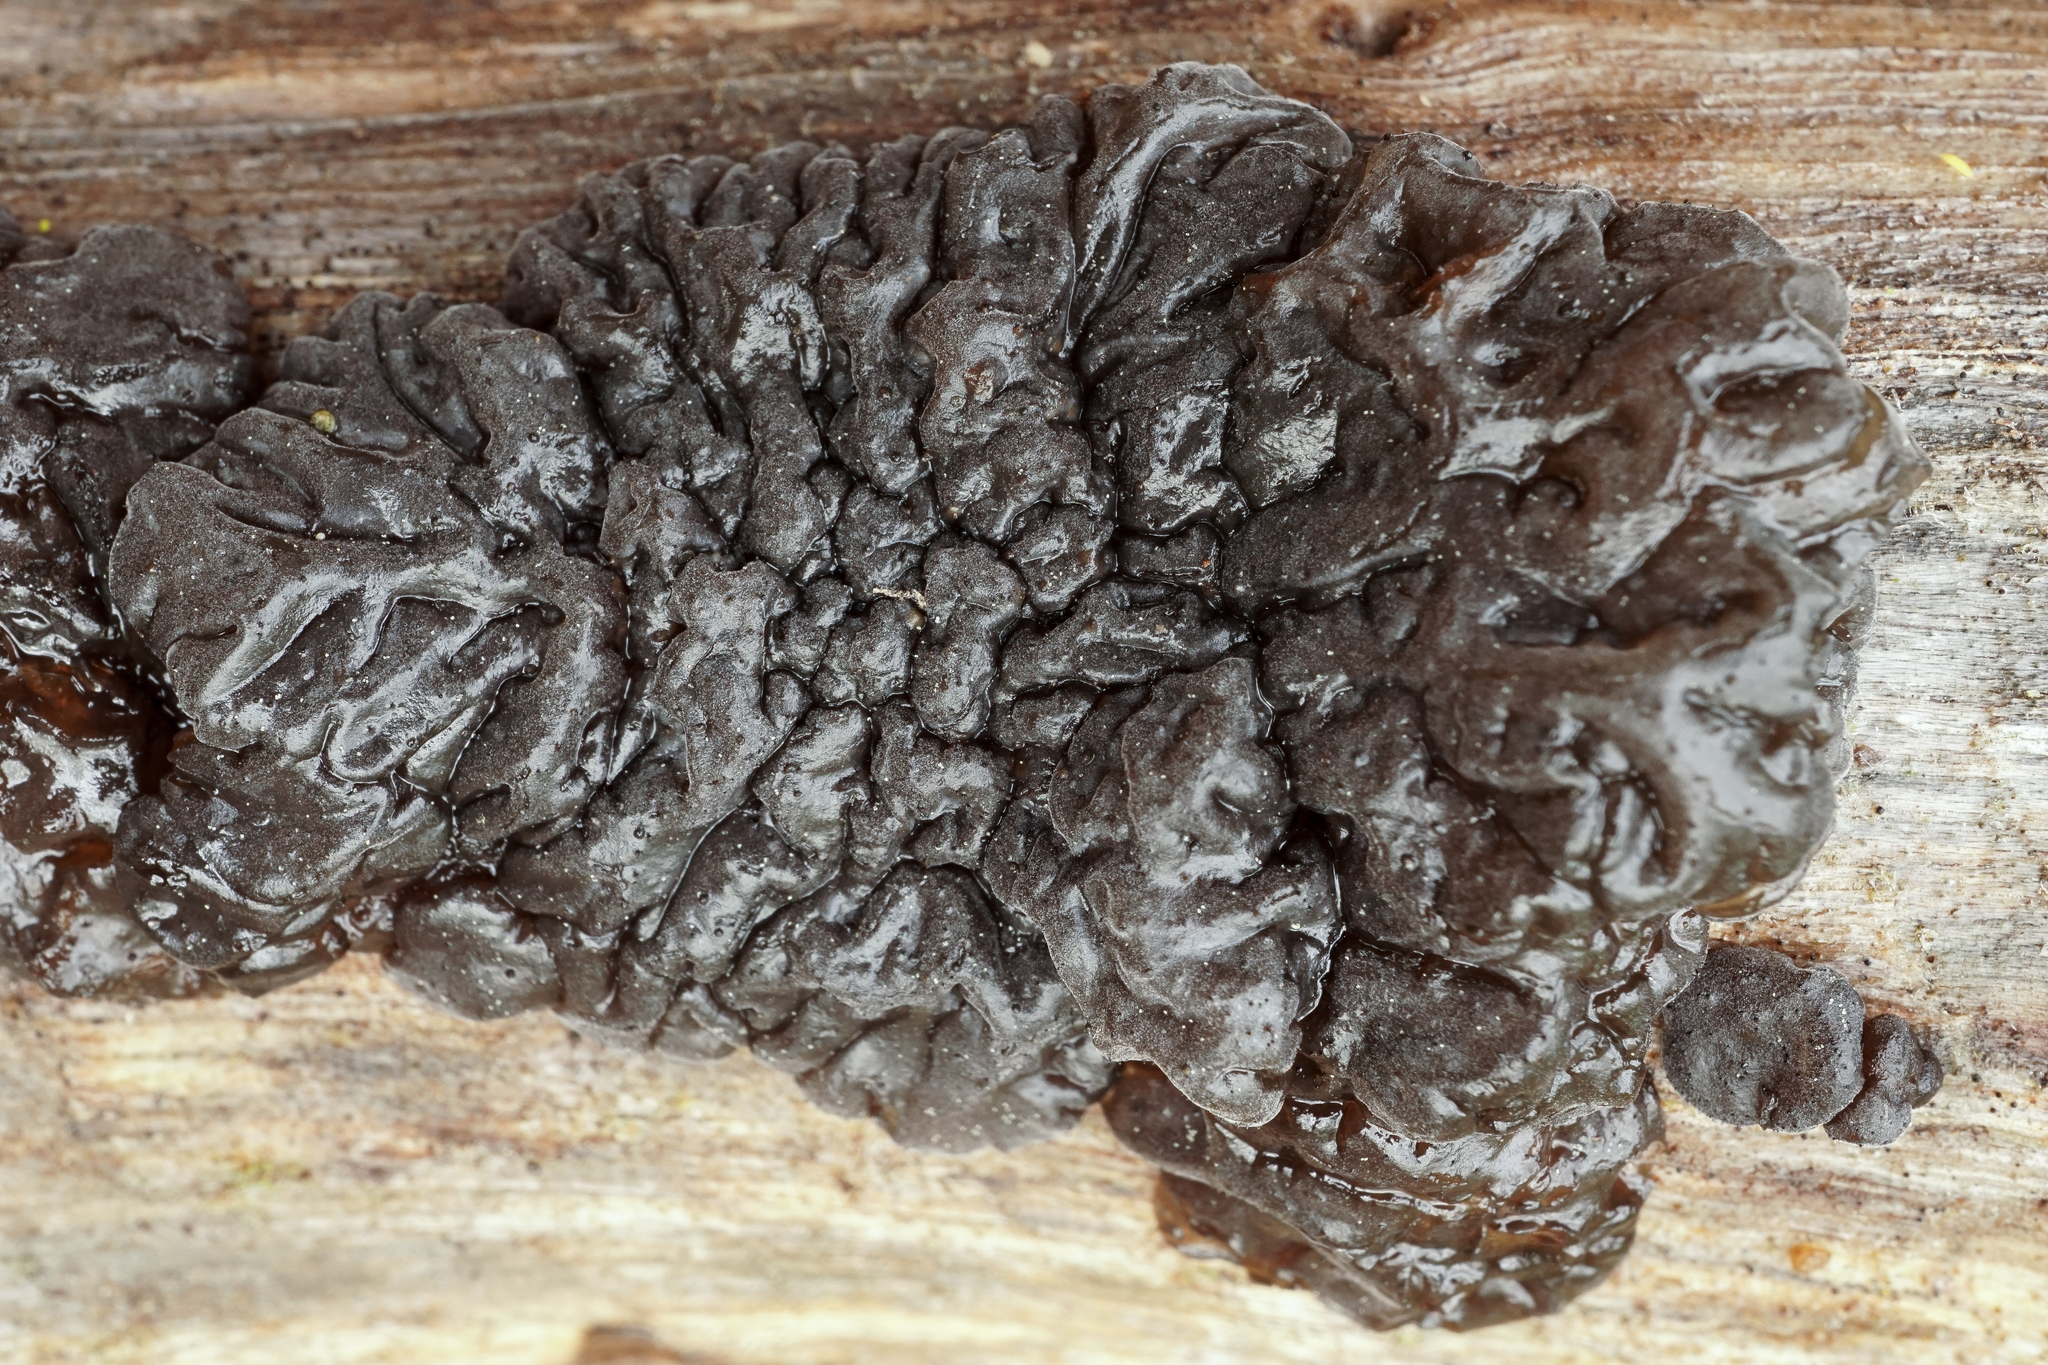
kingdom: Fungi
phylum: Basidiomycota
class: Agaricomycetes
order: Auriculariales
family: Auriculariaceae
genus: Exidia
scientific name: Exidia glandulosa
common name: Witches' butter
